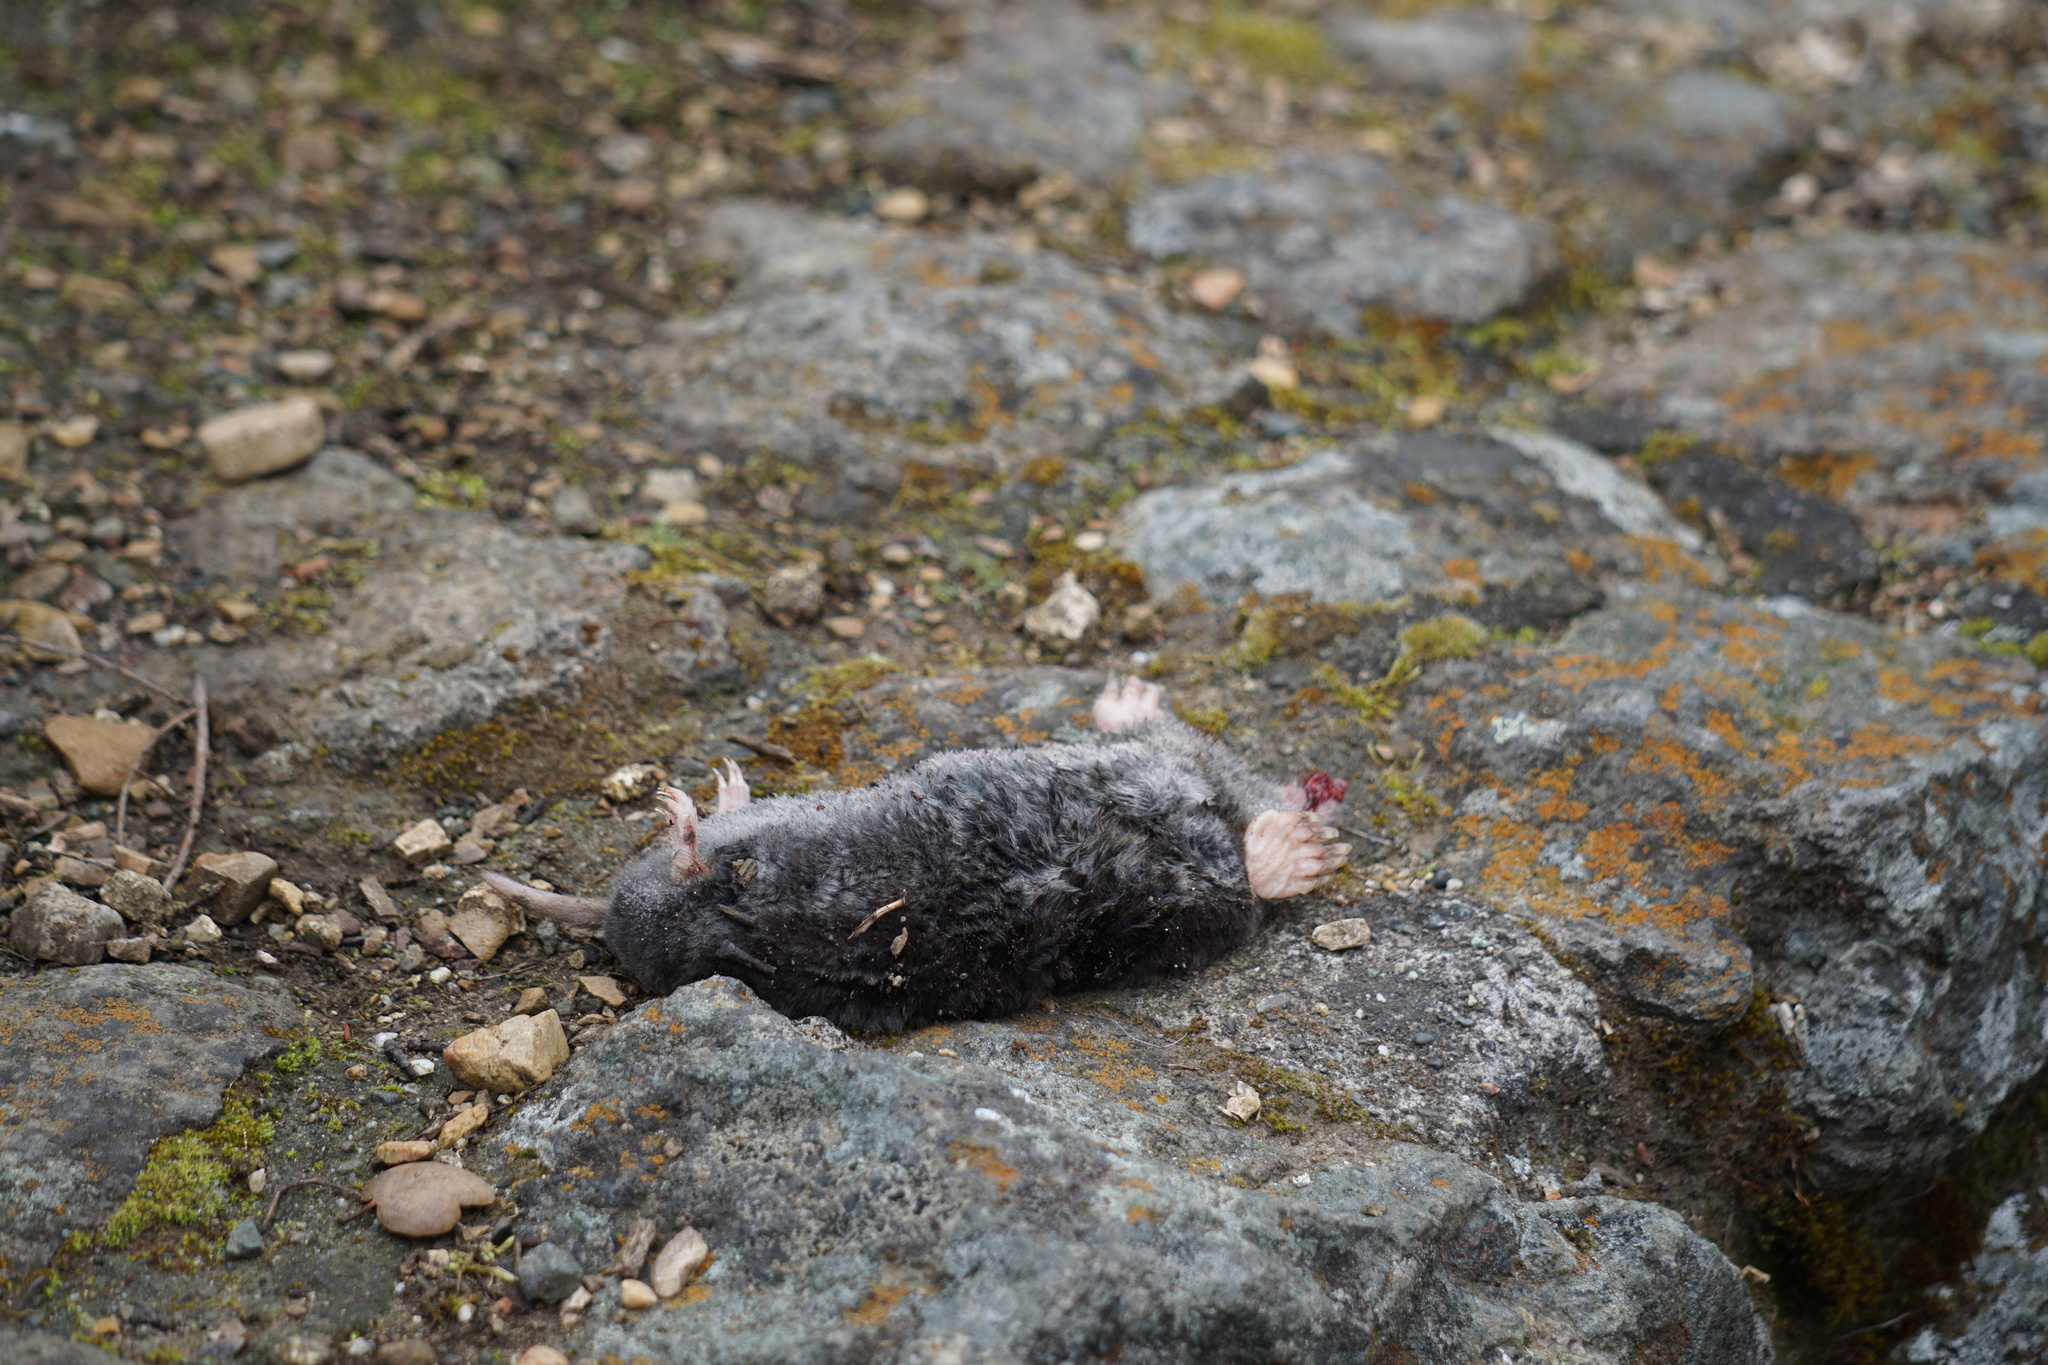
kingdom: Animalia
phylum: Chordata
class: Mammalia
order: Soricomorpha
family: Talpidae
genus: Scapanus
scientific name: Scapanus latimanus
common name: Broad-footed mole
